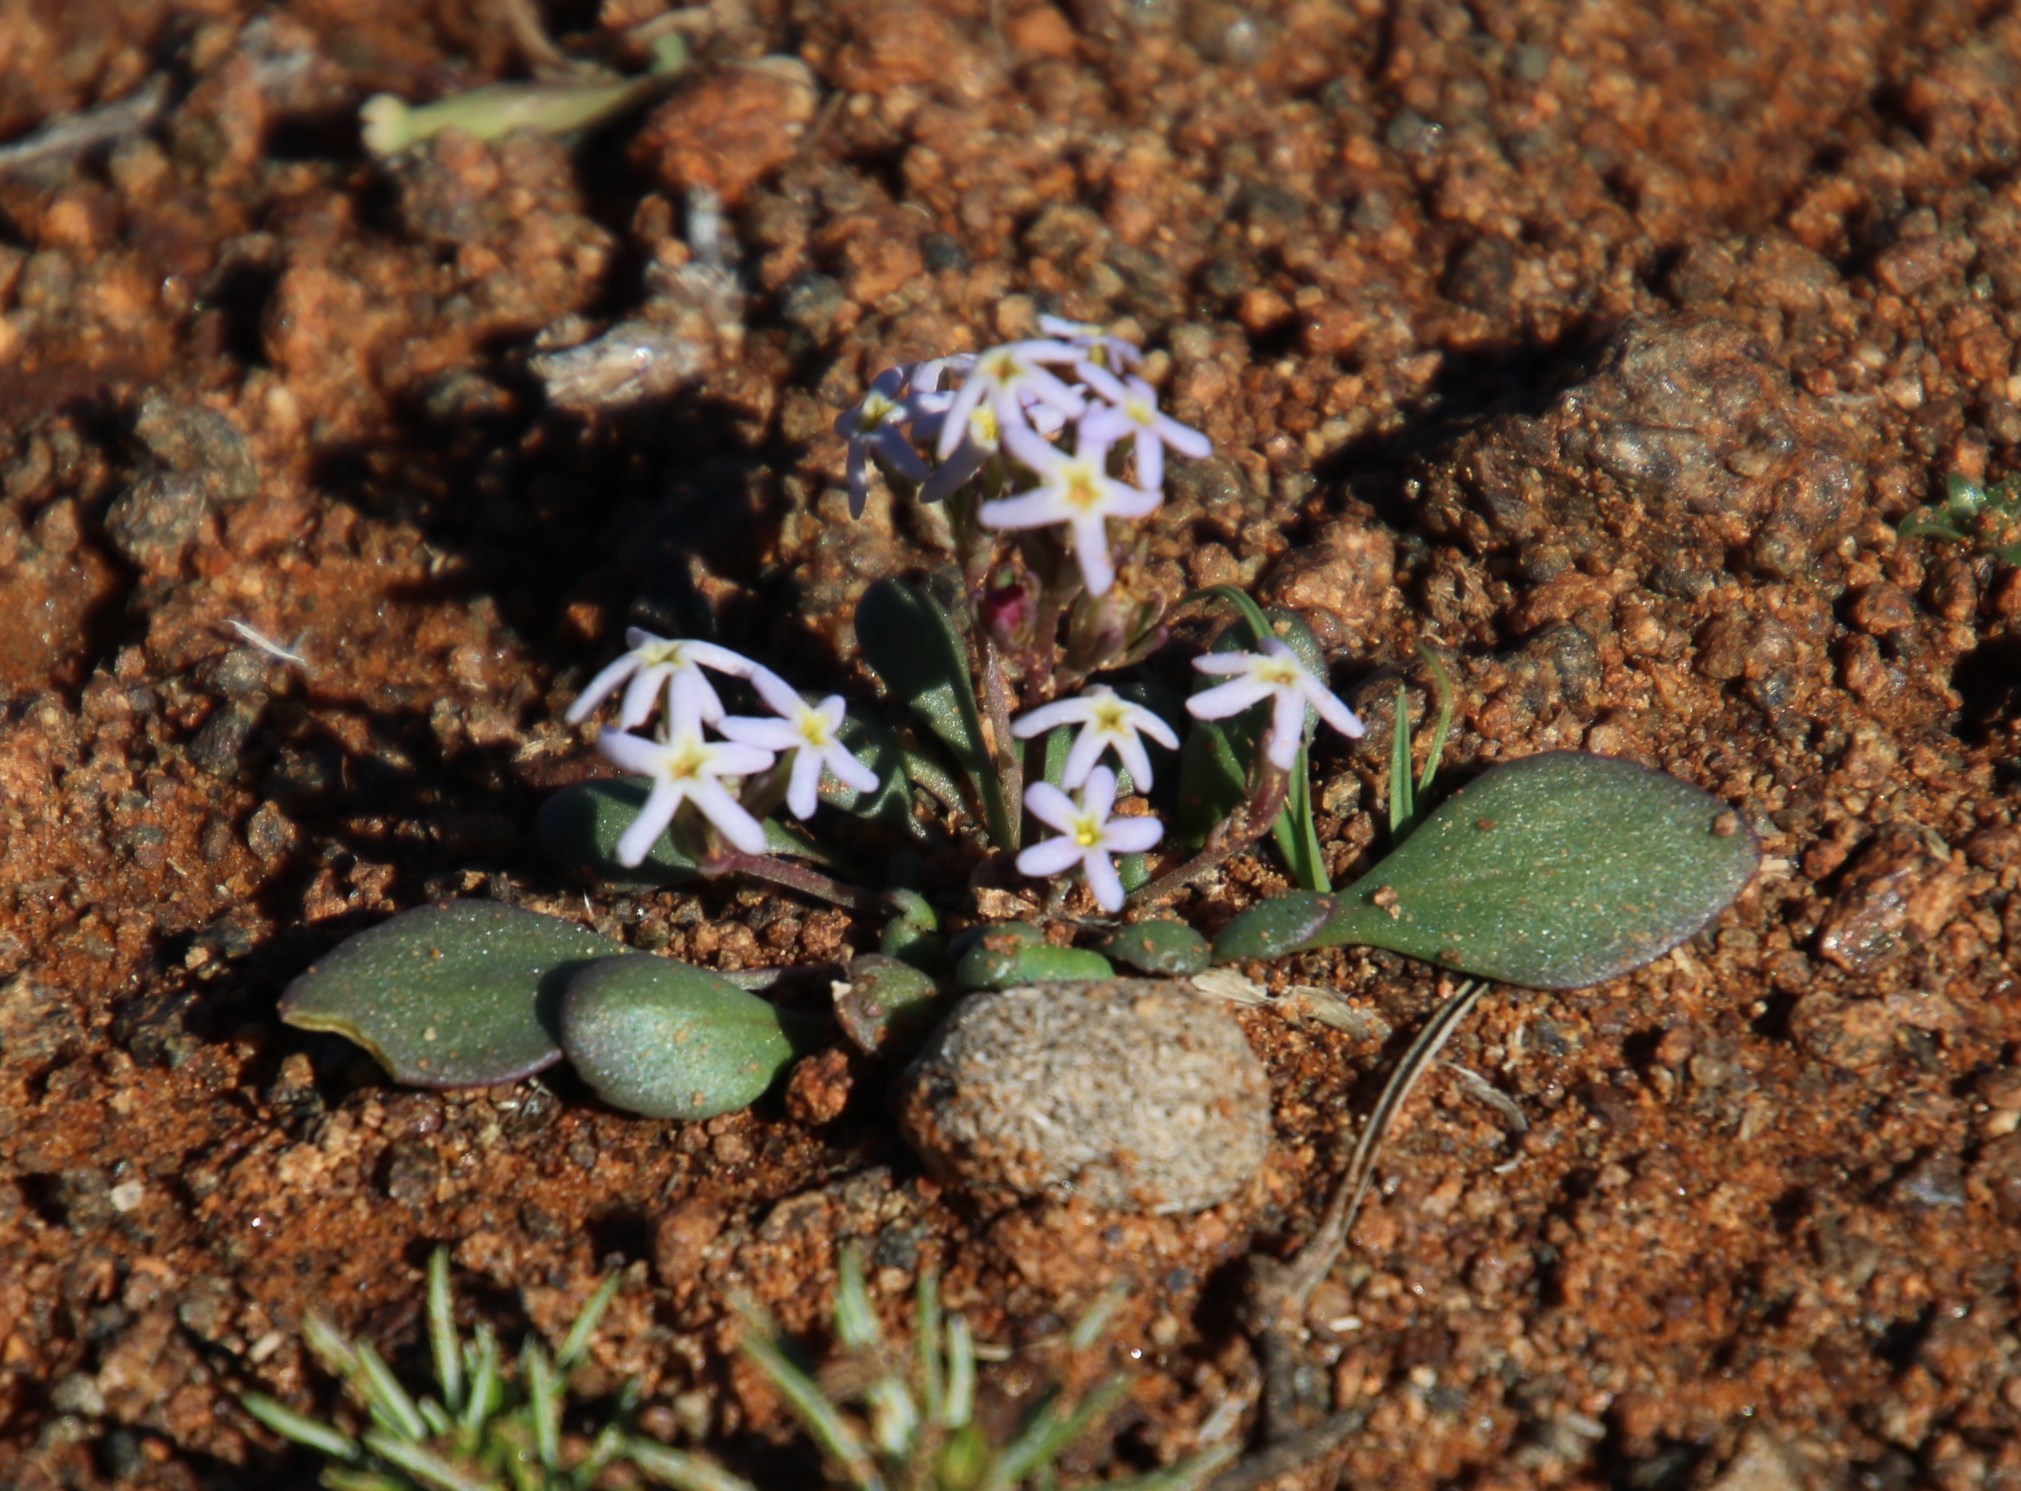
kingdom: Plantae
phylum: Tracheophyta
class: Magnoliopsida
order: Lamiales
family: Scrophulariaceae
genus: Manulea
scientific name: Manulea fragrans
